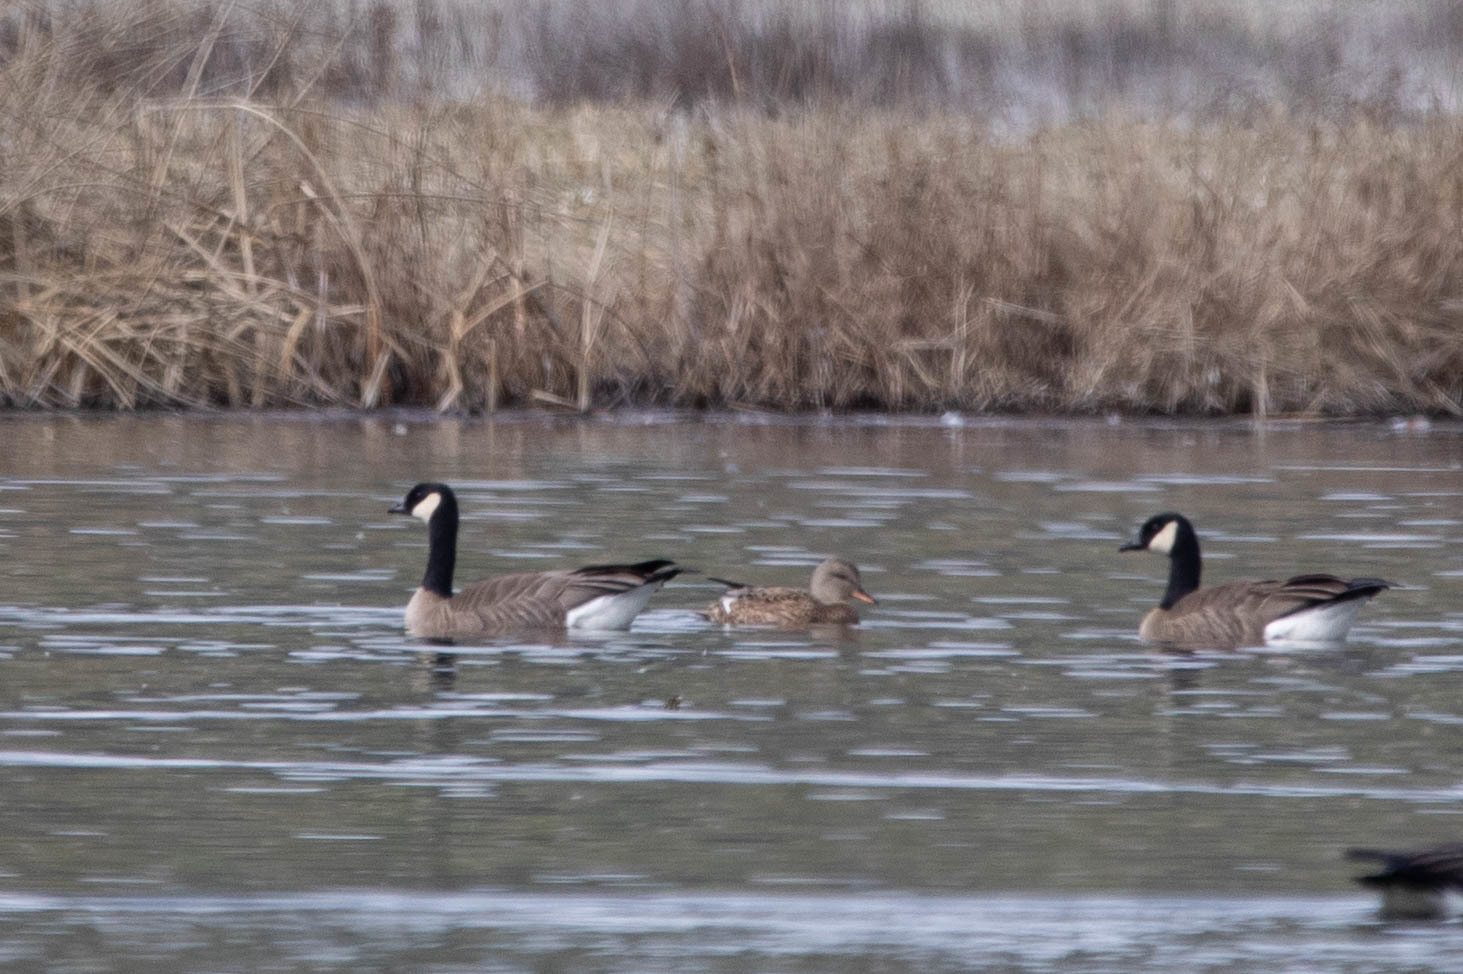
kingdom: Animalia
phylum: Chordata
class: Aves
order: Anseriformes
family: Anatidae
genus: Branta
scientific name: Branta hutchinsii
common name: Cackling goose
